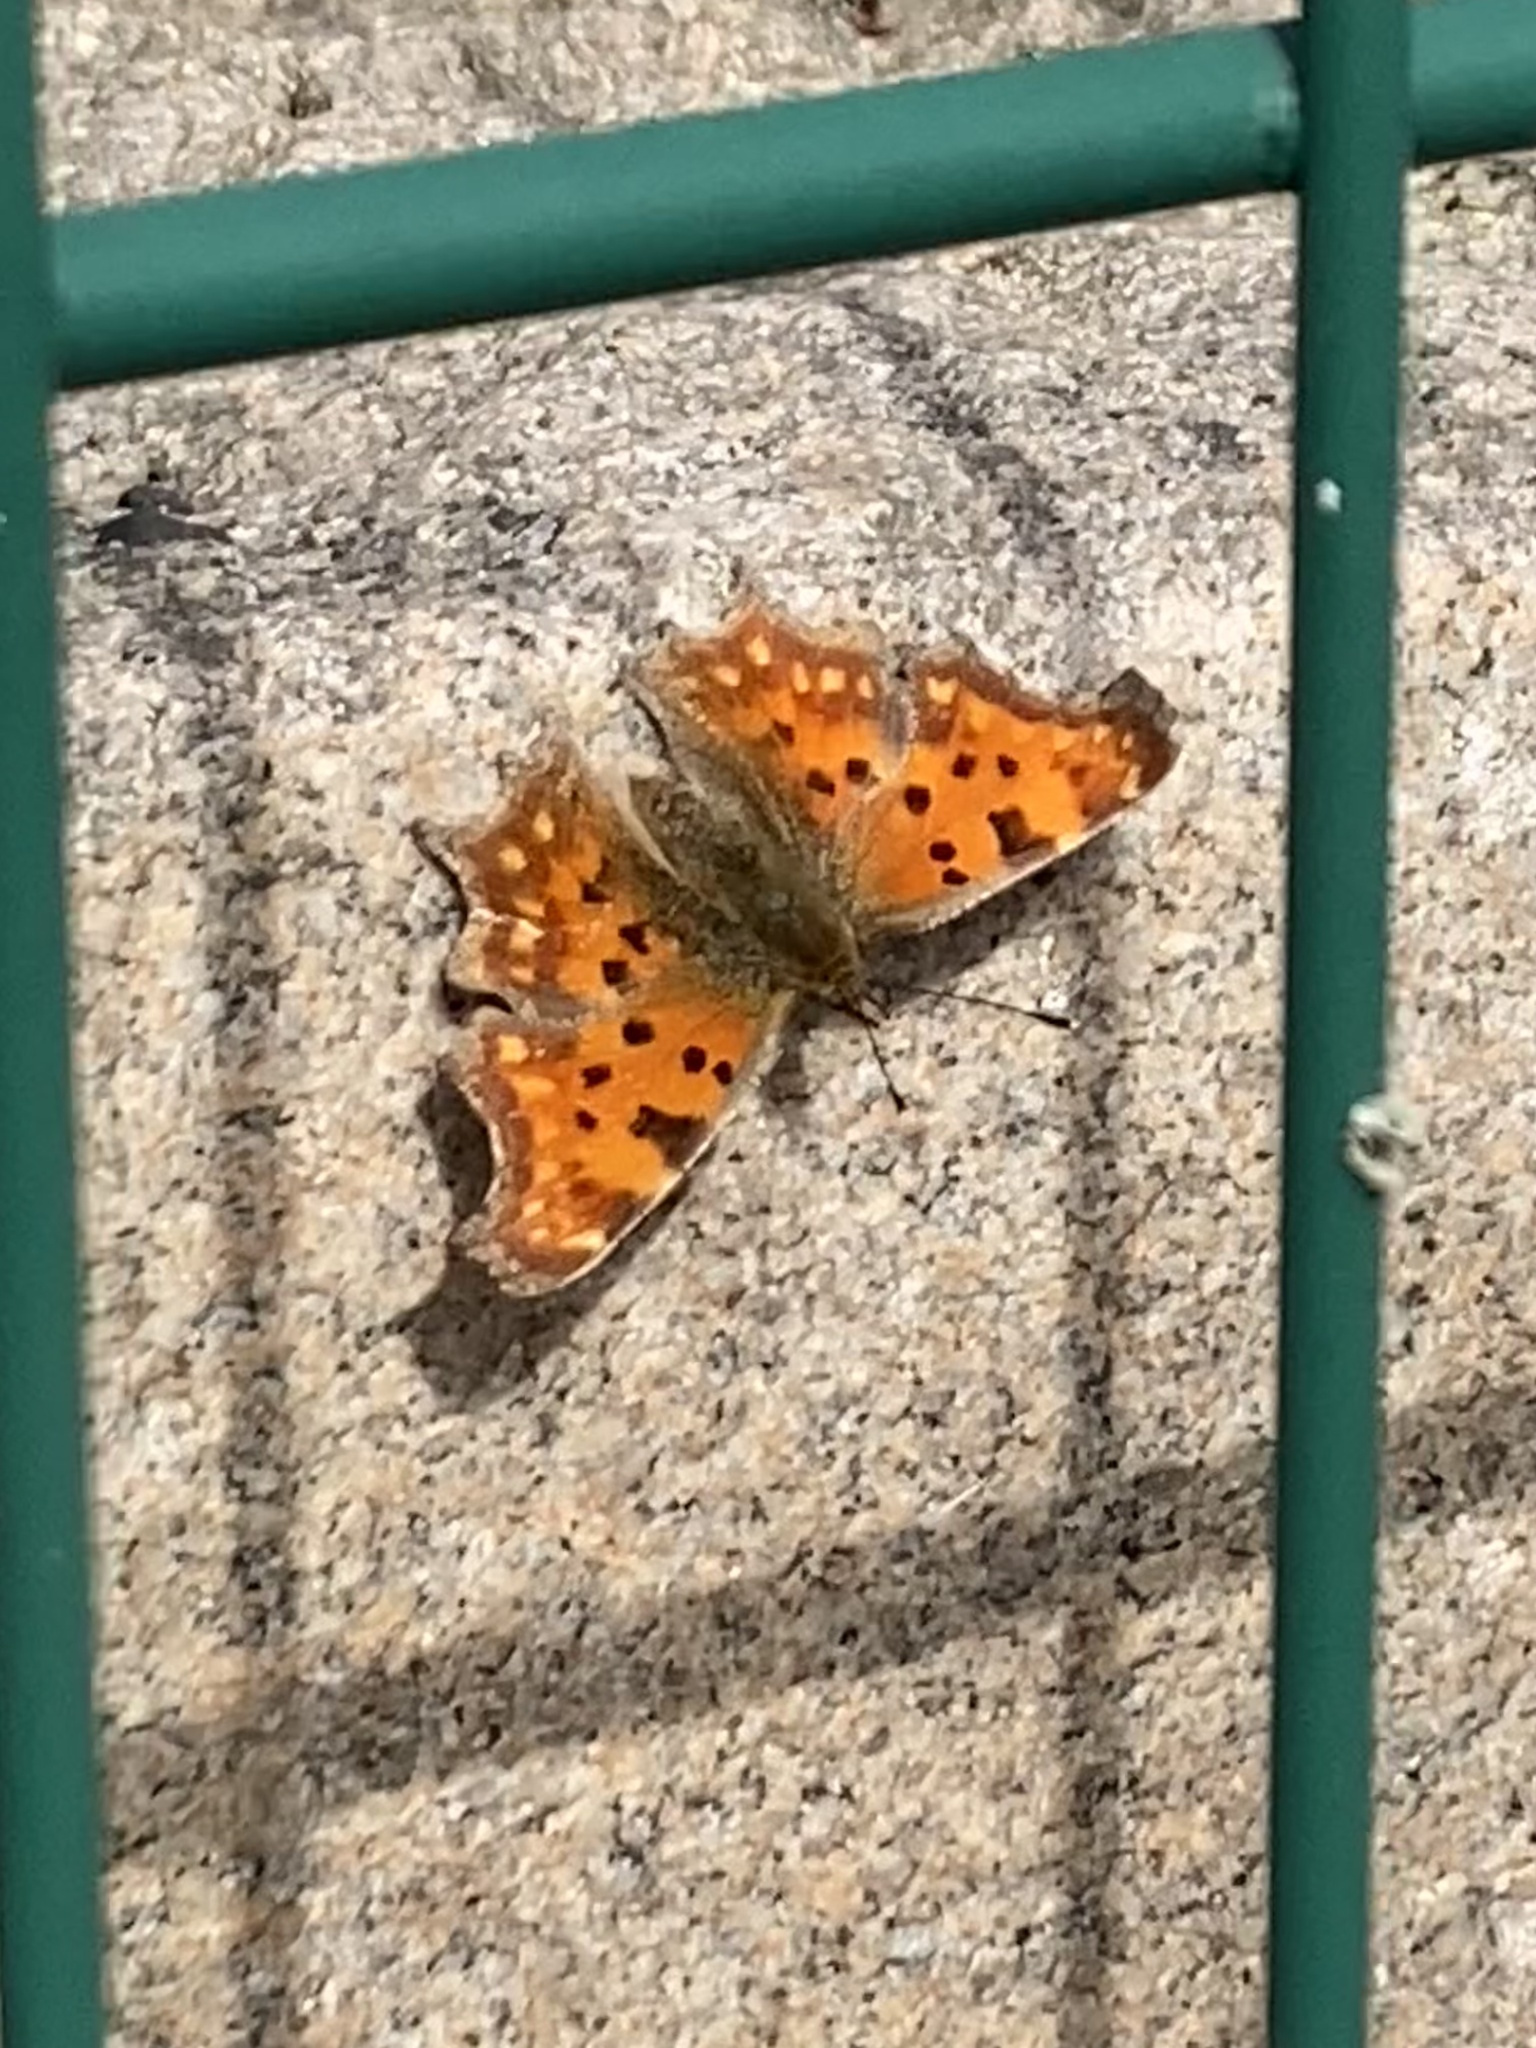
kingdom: Animalia
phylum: Arthropoda
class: Insecta
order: Lepidoptera
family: Nymphalidae
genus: Polygonia
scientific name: Polygonia c-album
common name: Comma
